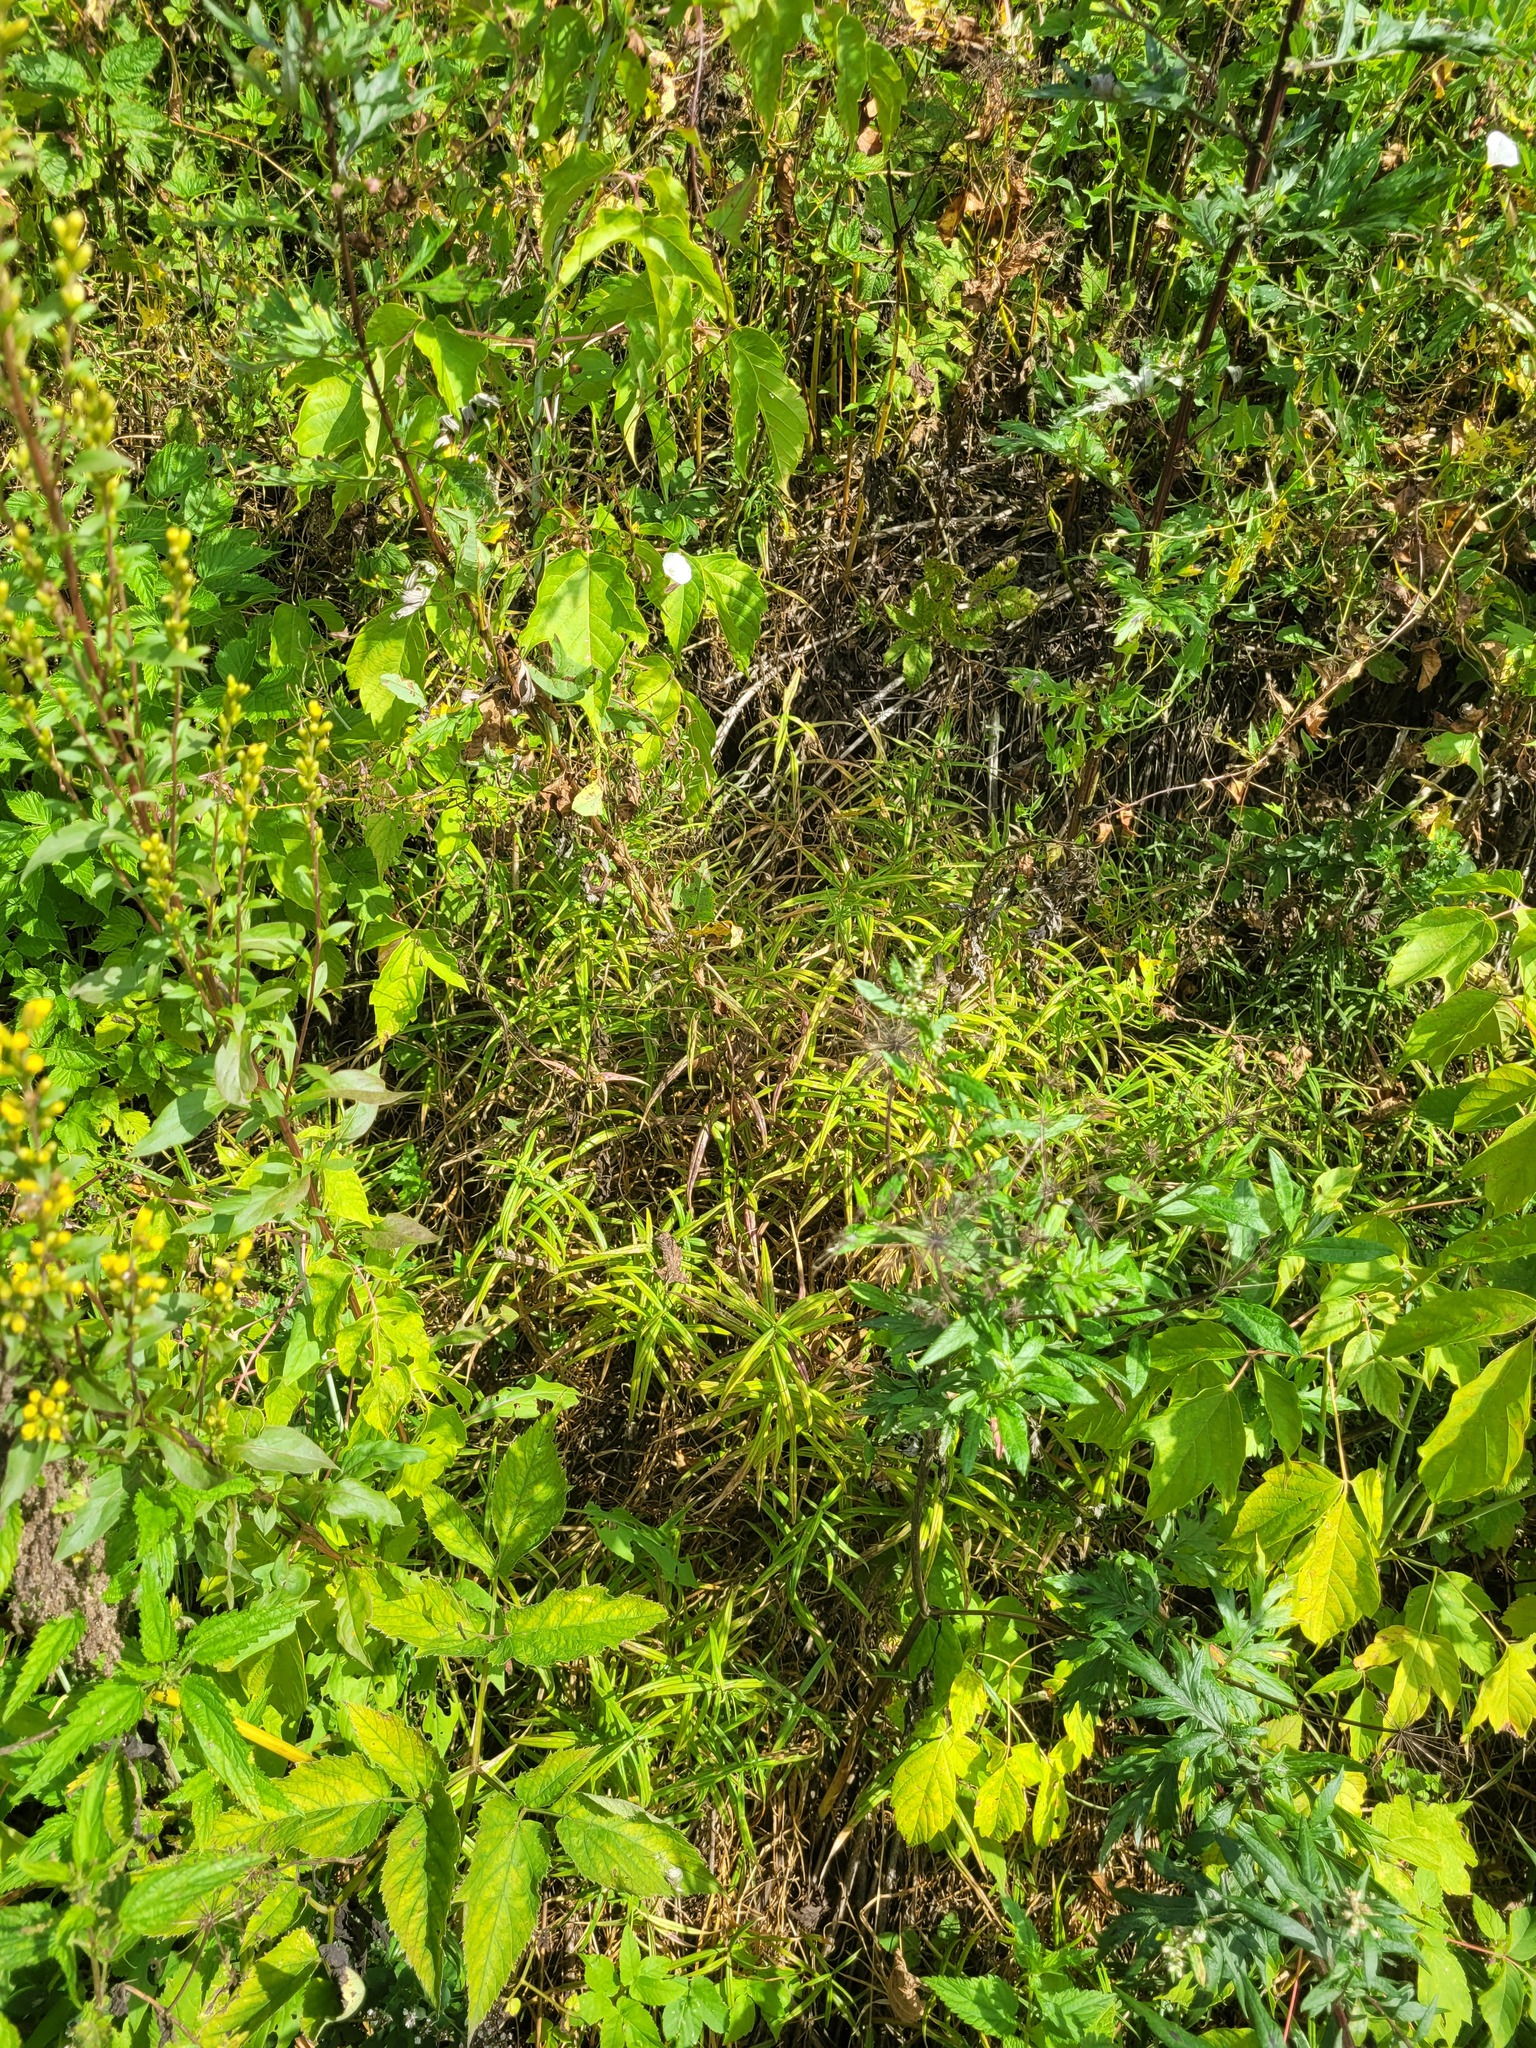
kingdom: Plantae
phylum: Tracheophyta
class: Magnoliopsida
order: Caryophyllales
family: Caryophyllaceae
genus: Rabelera
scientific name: Rabelera holostea
